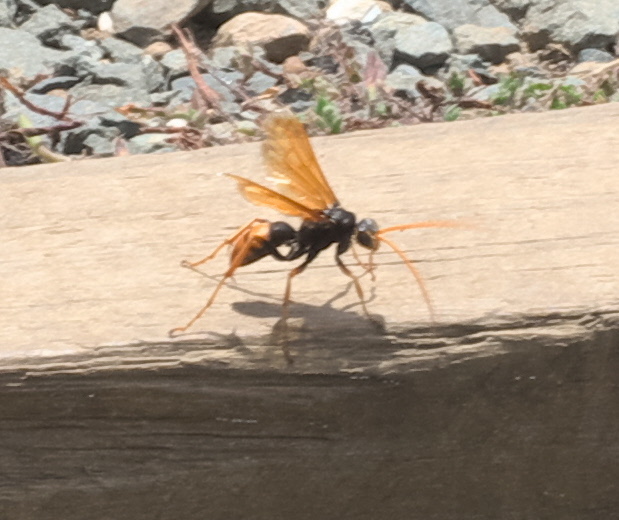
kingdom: Animalia
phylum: Arthropoda
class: Insecta
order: Hymenoptera
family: Pompilidae
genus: Cryptocheilus
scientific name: Cryptocheilus australis
